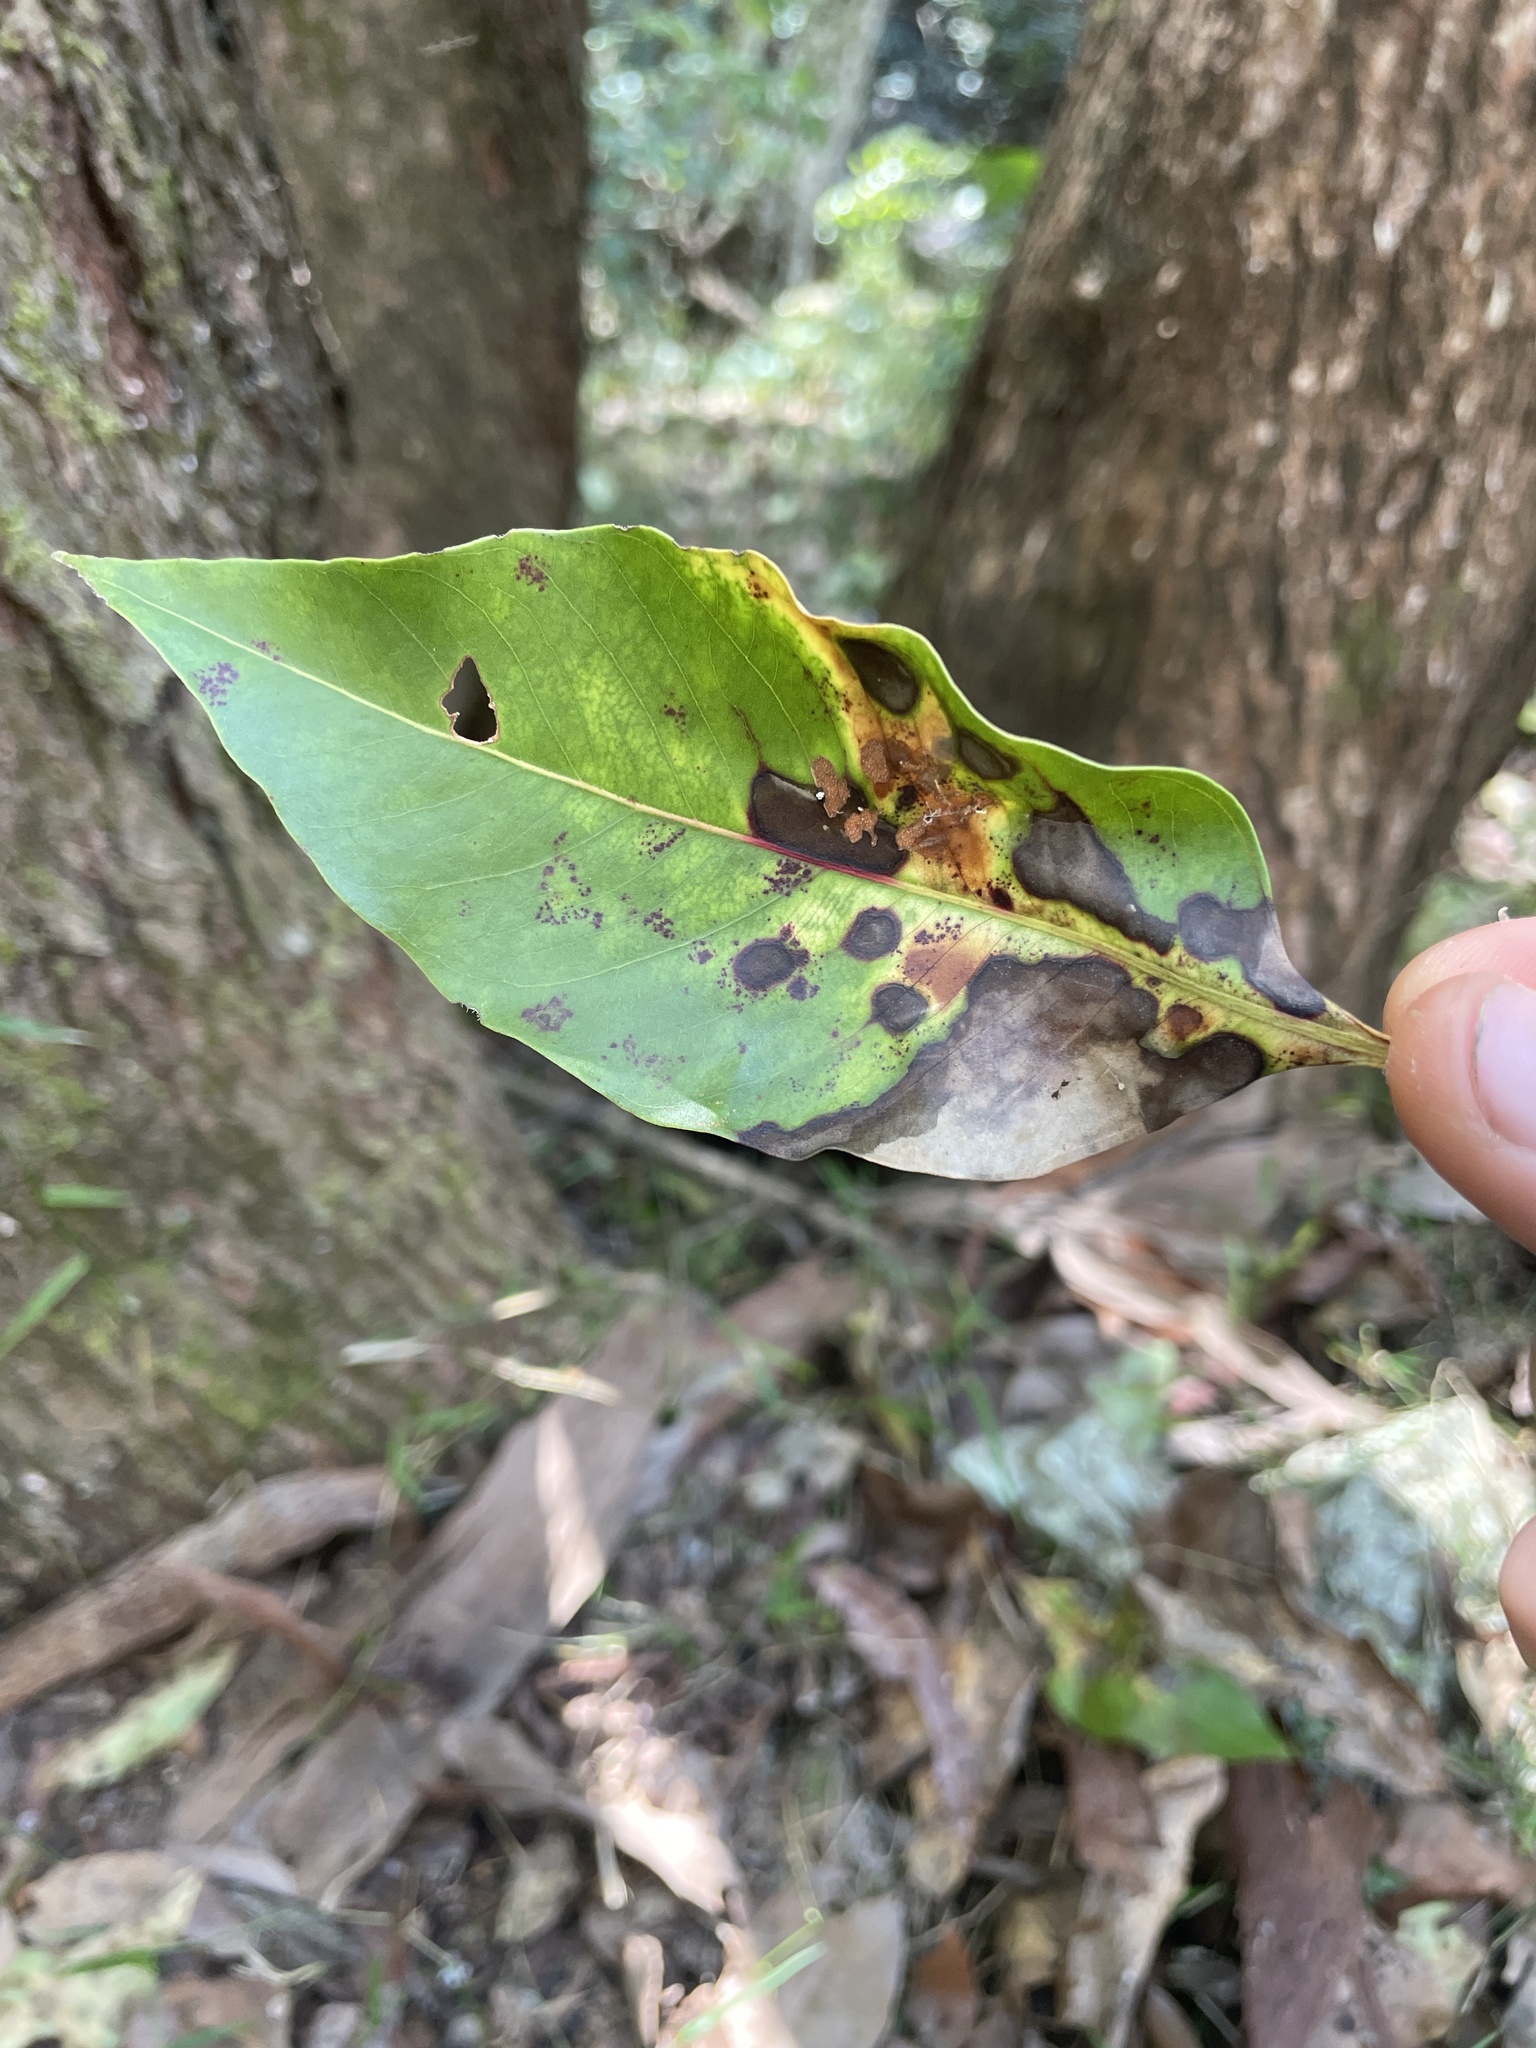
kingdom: Plantae
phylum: Tracheophyta
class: Magnoliopsida
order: Myrtales
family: Myrtaceae
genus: Lophostemon
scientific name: Lophostemon confertus
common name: Brisbane box
